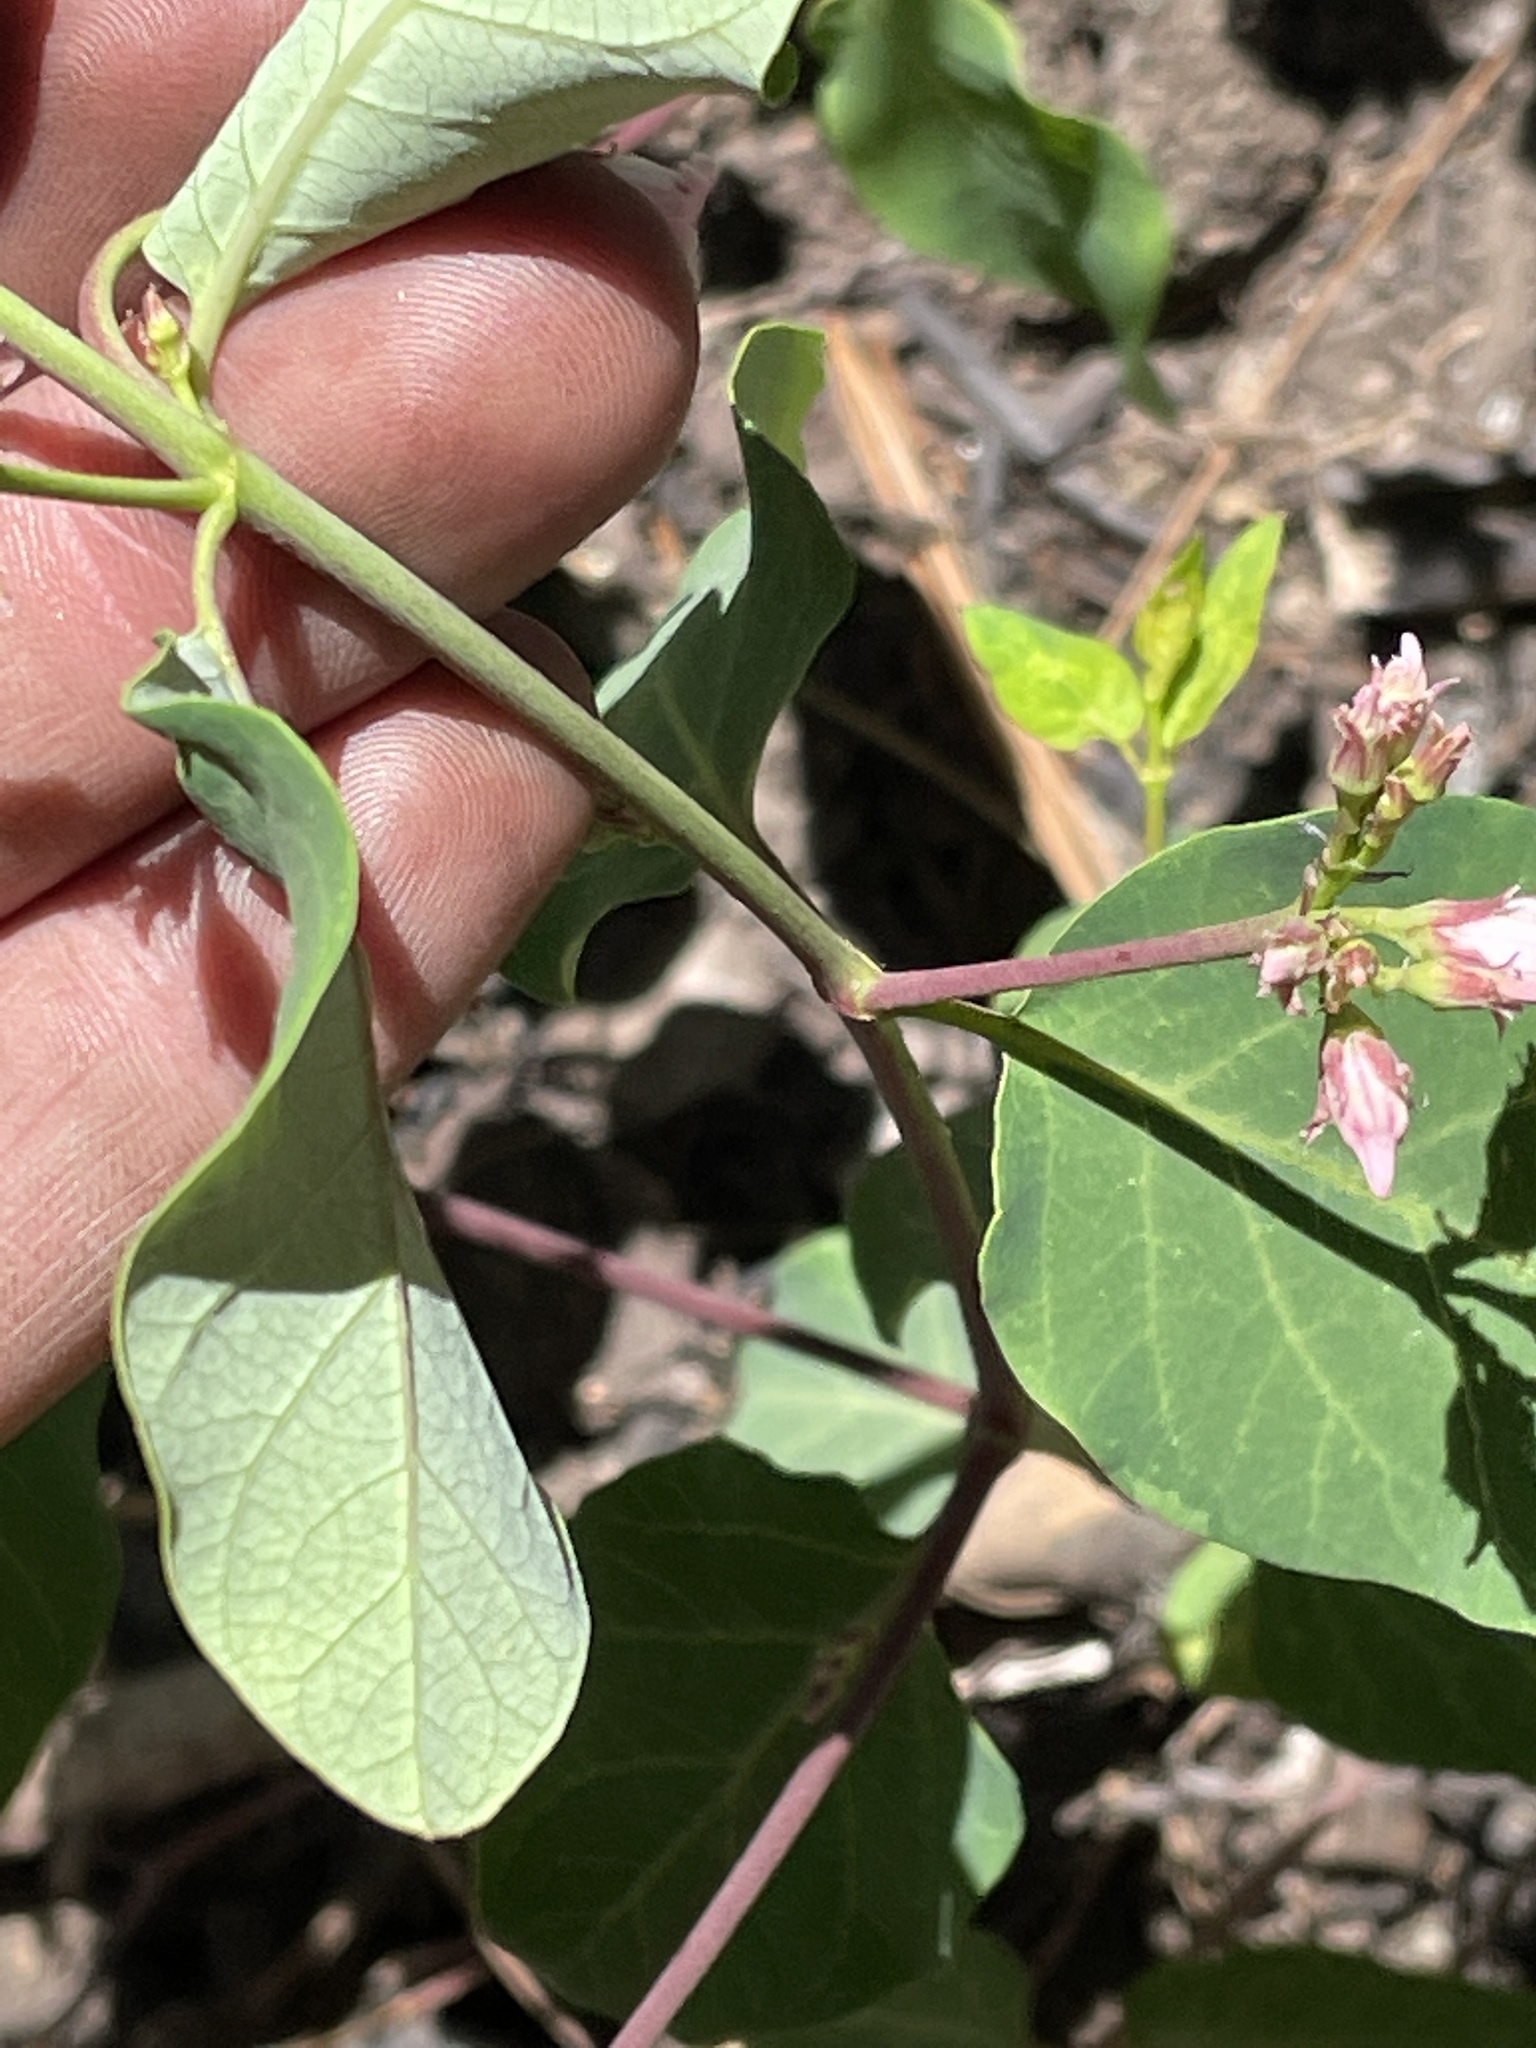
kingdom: Plantae
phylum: Tracheophyta
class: Magnoliopsida
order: Gentianales
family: Apocynaceae
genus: Apocynum
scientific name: Apocynum androsaemifolium
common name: Spreading dogbane
